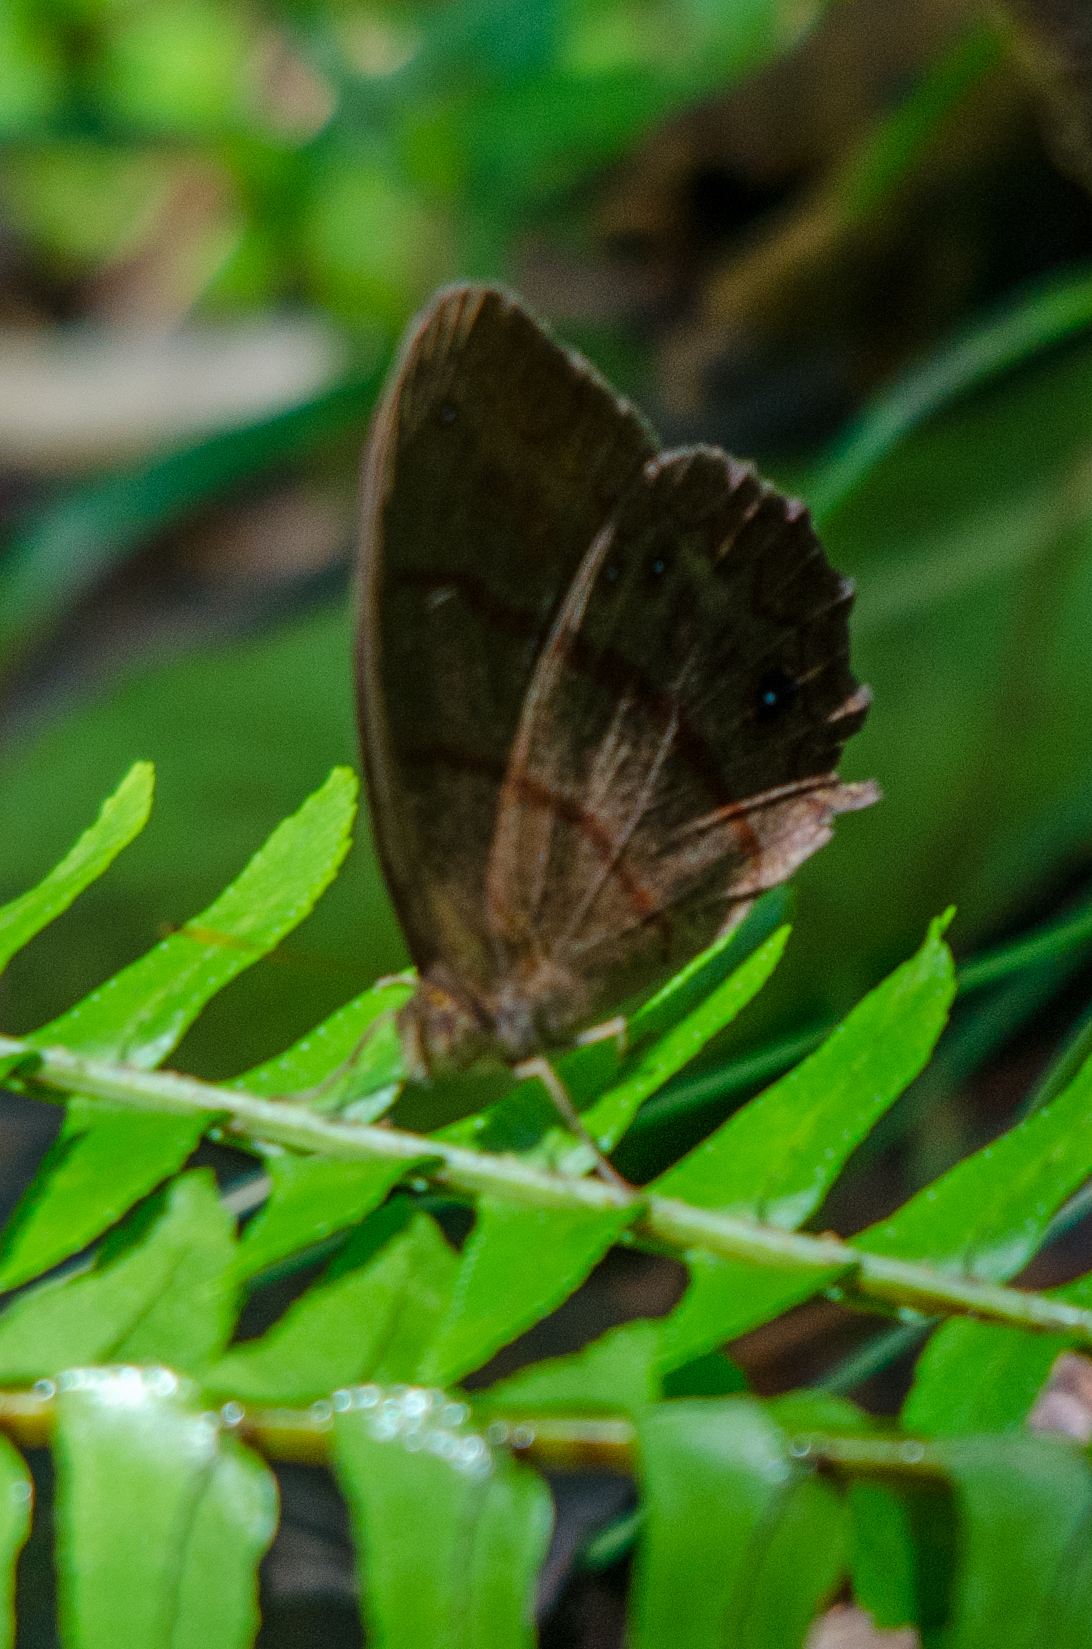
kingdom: Animalia
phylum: Arthropoda
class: Insecta
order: Lepidoptera
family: Nymphalidae
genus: Satyrotaygetis
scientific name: Satyrotaygetis satyrina
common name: Wide-bordered satyr
